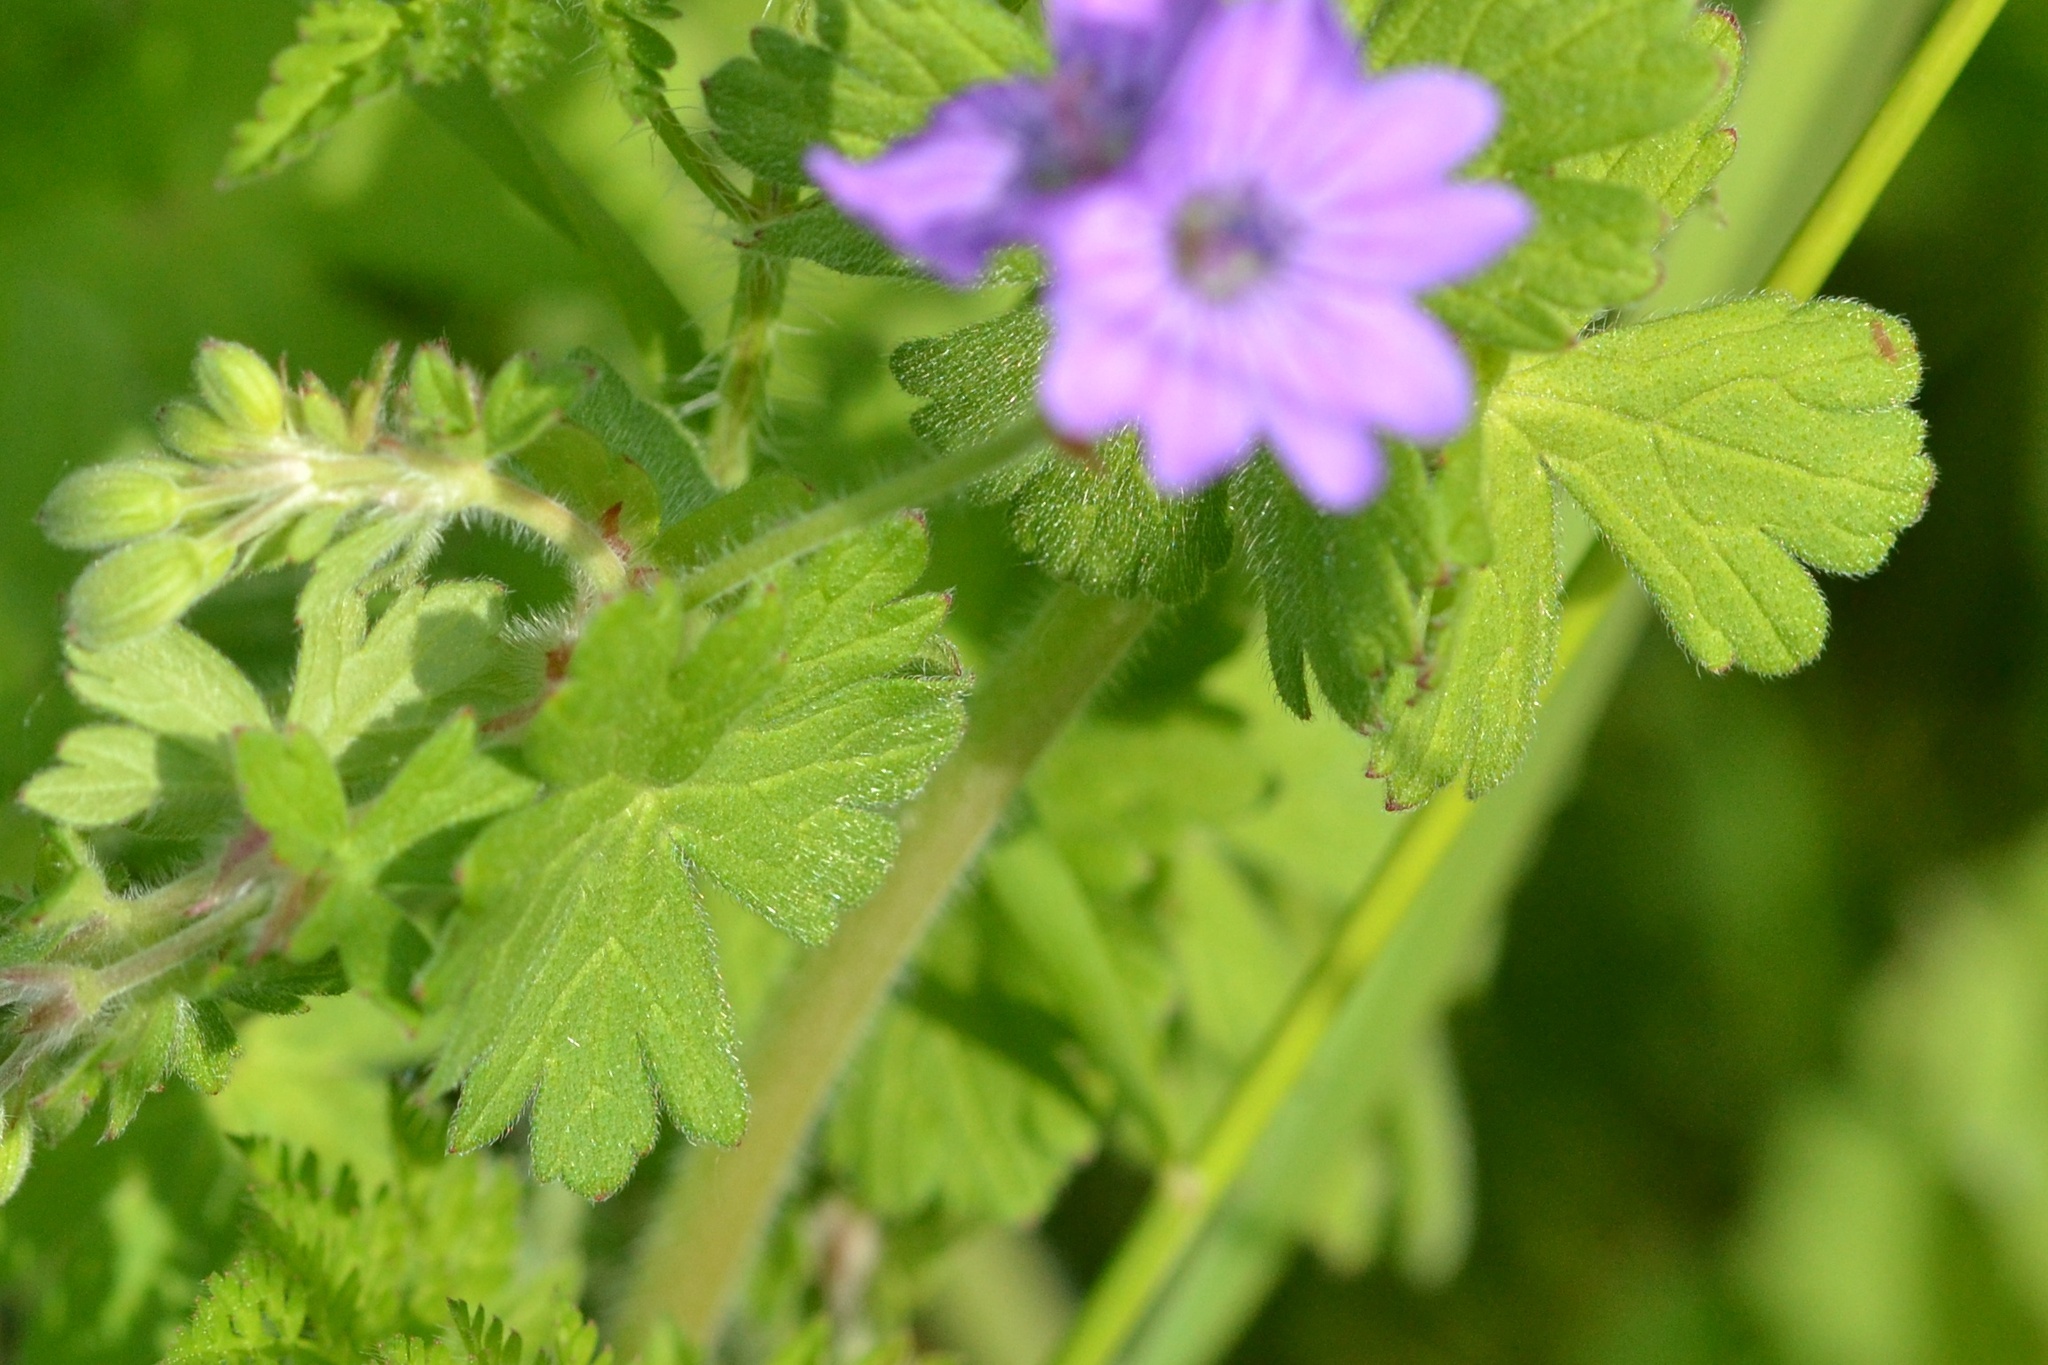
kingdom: Plantae
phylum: Tracheophyta
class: Magnoliopsida
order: Geraniales
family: Geraniaceae
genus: Geranium
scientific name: Geranium pyrenaicum
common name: Hedgerow crane's-bill
